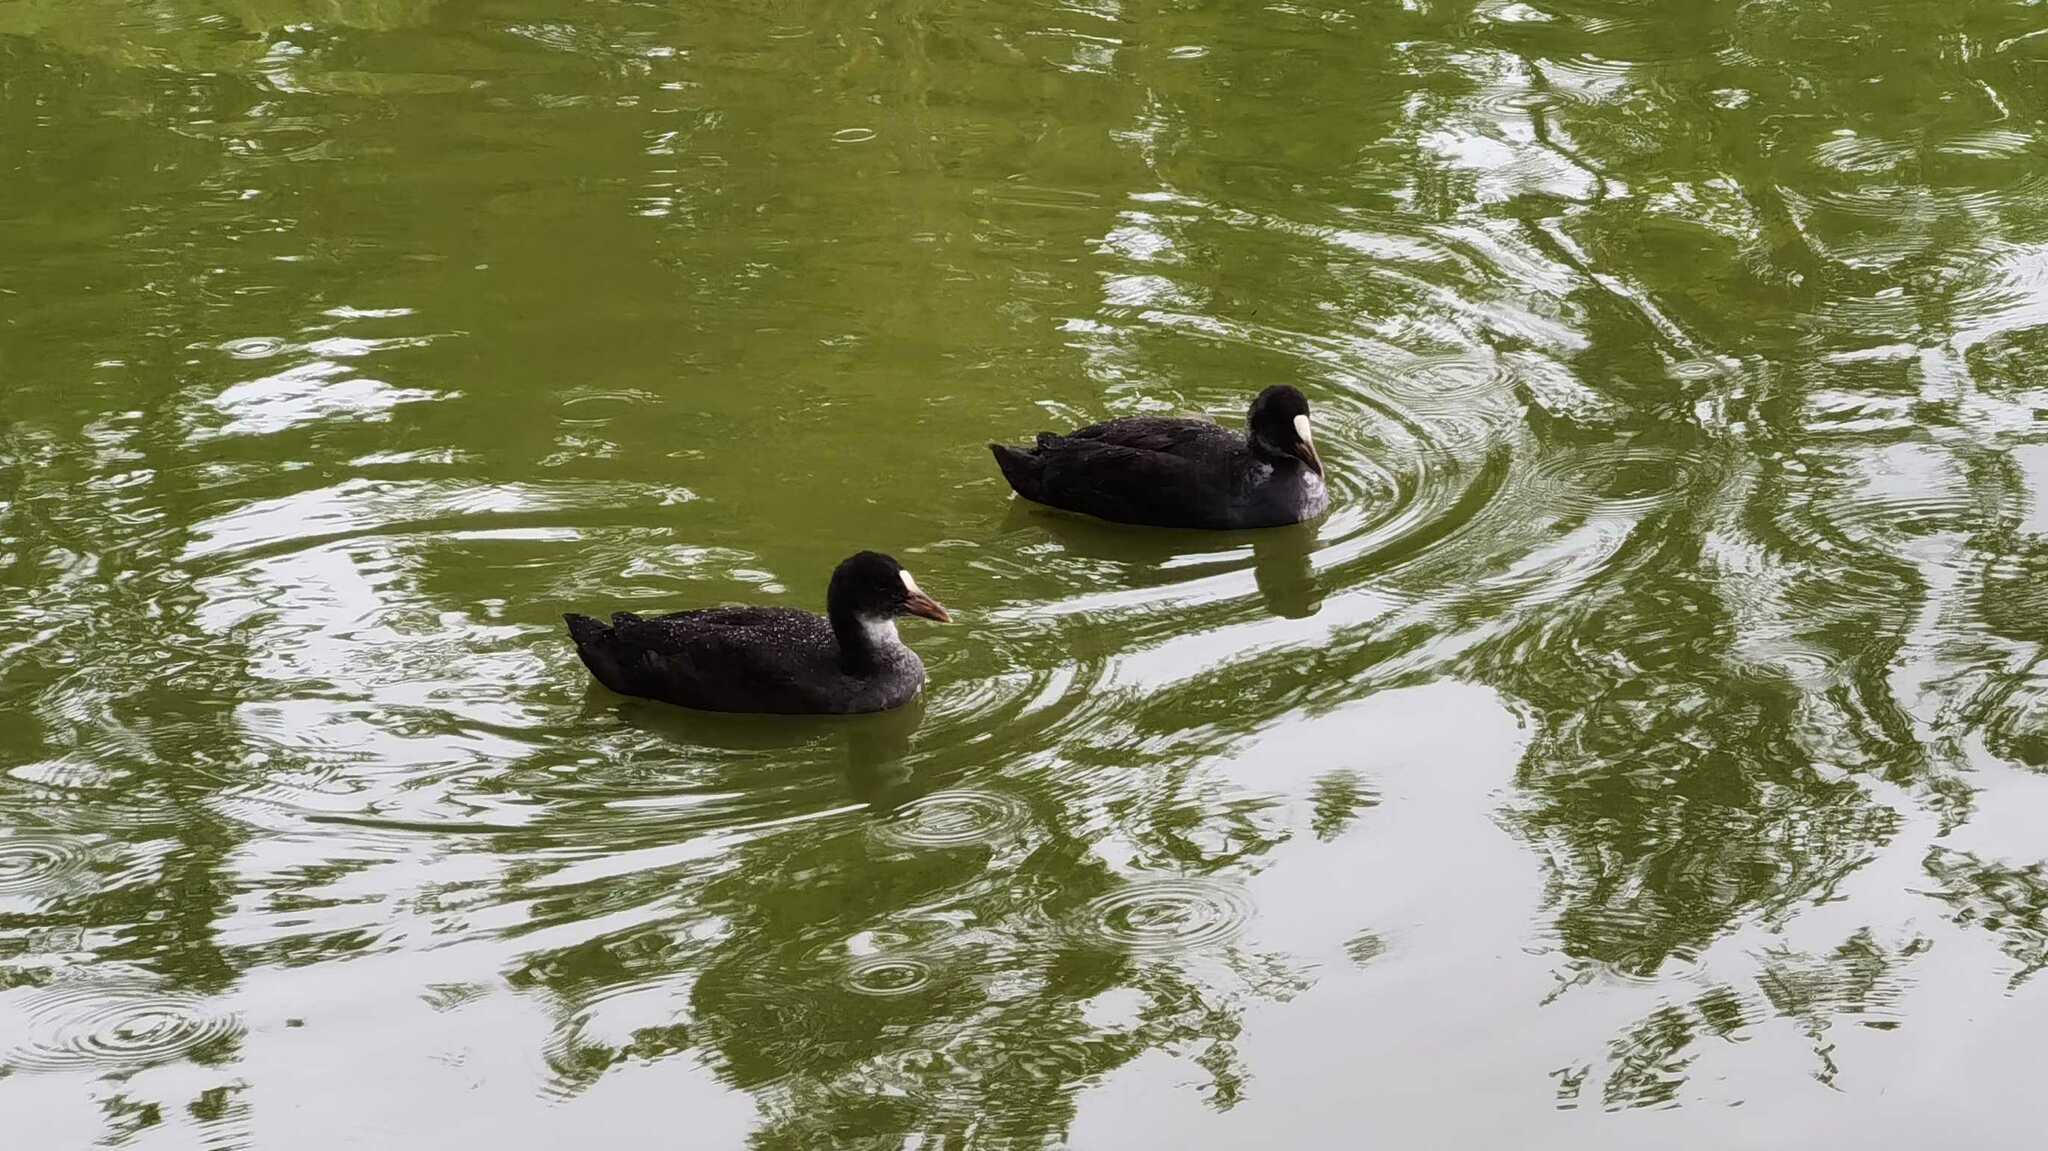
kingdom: Animalia
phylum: Chordata
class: Aves
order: Gruiformes
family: Rallidae
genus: Fulica
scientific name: Fulica atra
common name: Eurasian coot
